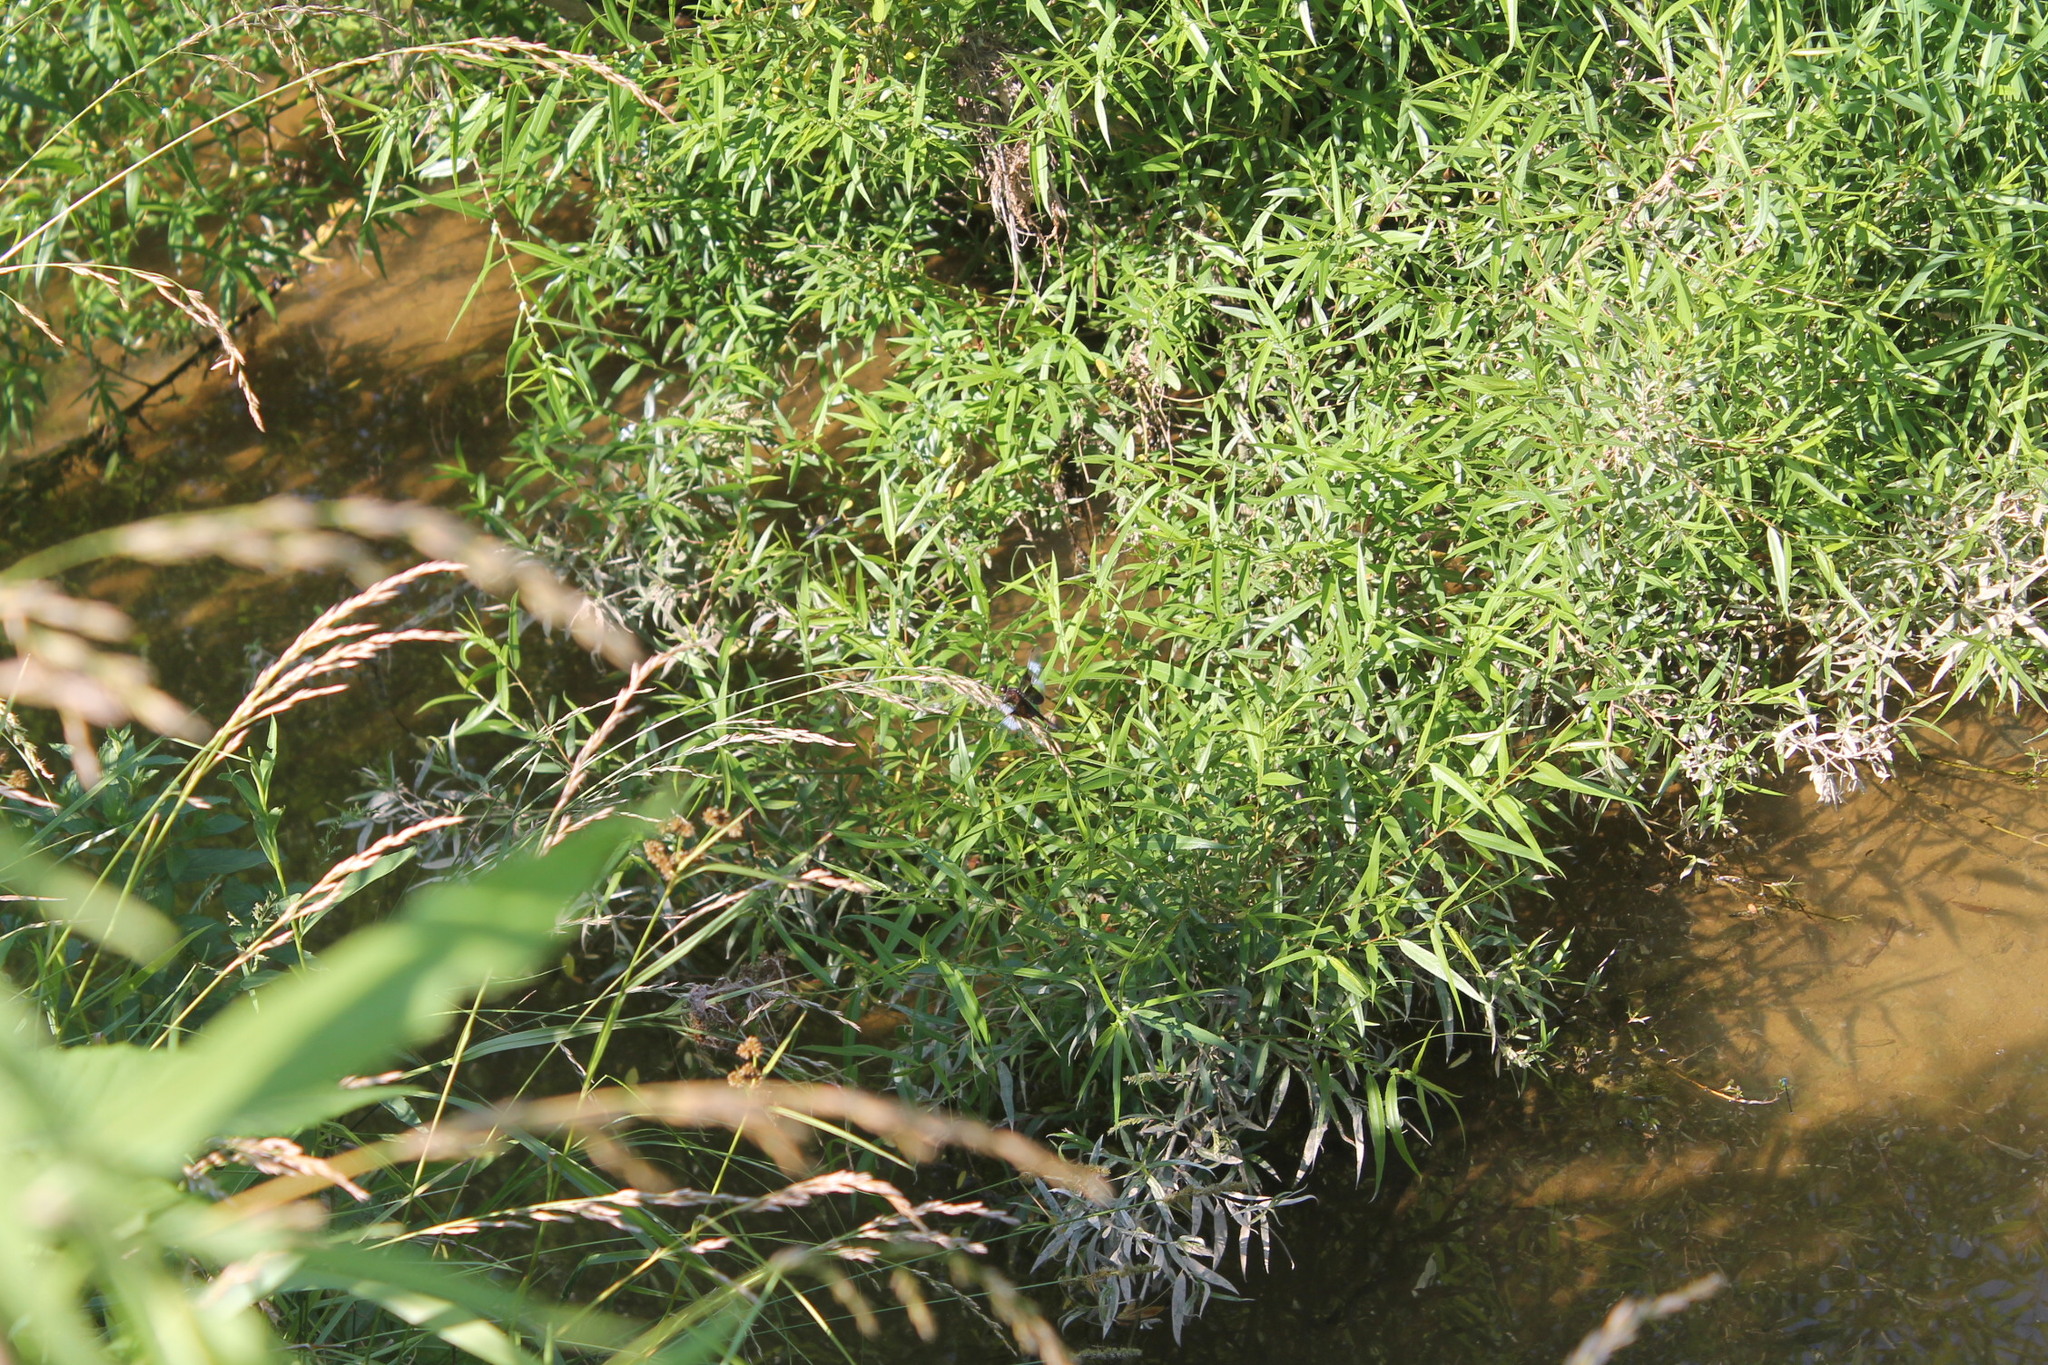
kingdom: Animalia
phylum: Arthropoda
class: Insecta
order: Odonata
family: Libellulidae
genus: Libellula
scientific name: Libellula luctuosa
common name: Widow skimmer
